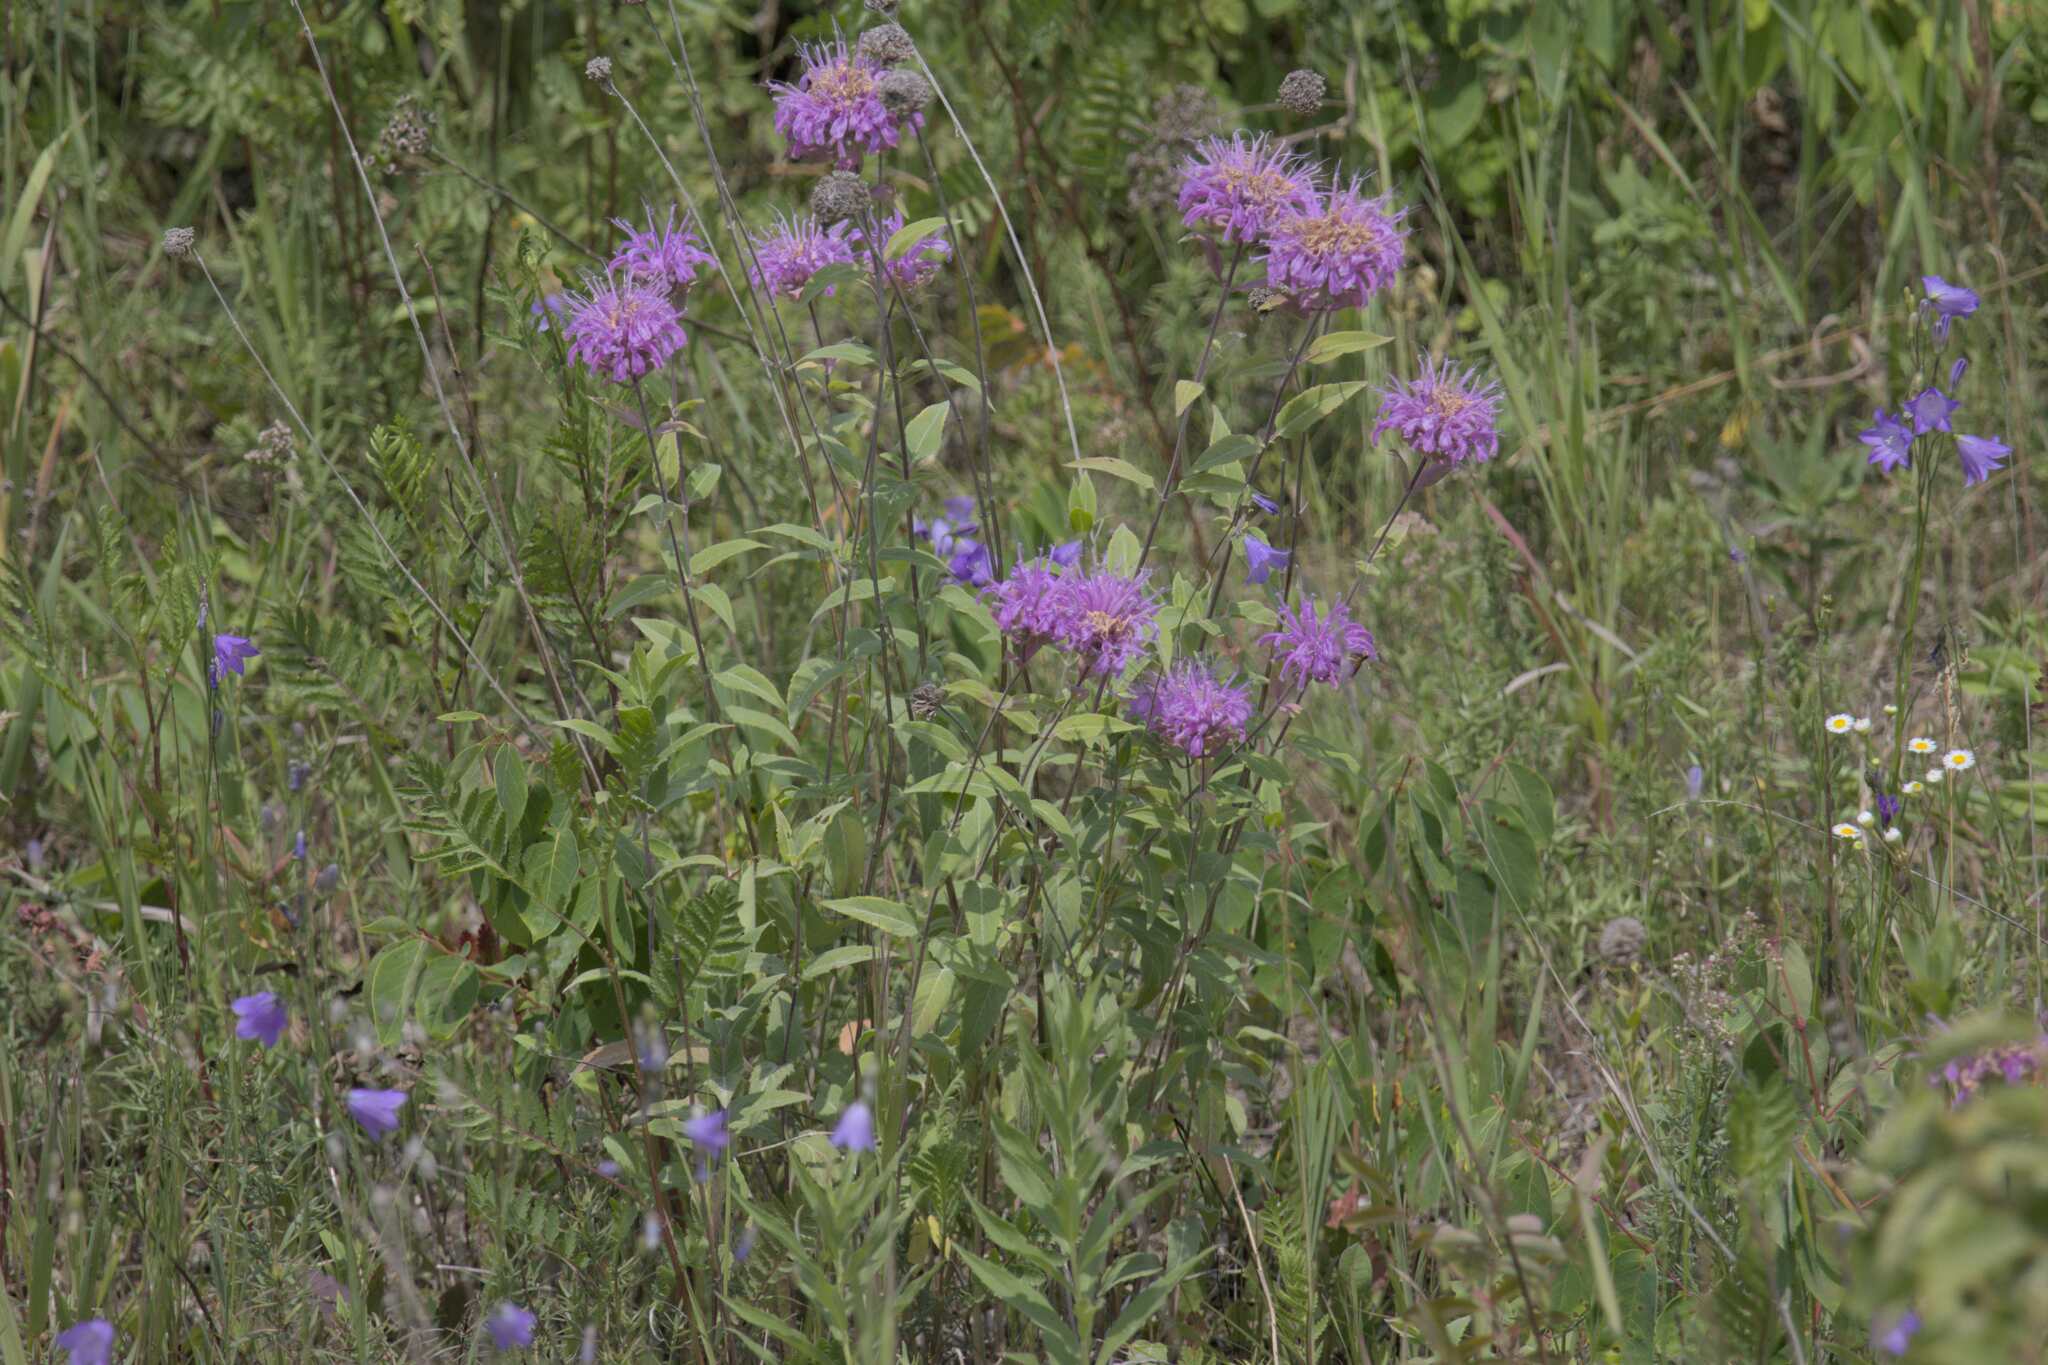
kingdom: Plantae
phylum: Tracheophyta
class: Magnoliopsida
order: Lamiales
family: Lamiaceae
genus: Monarda
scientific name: Monarda fistulosa
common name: Purple beebalm
